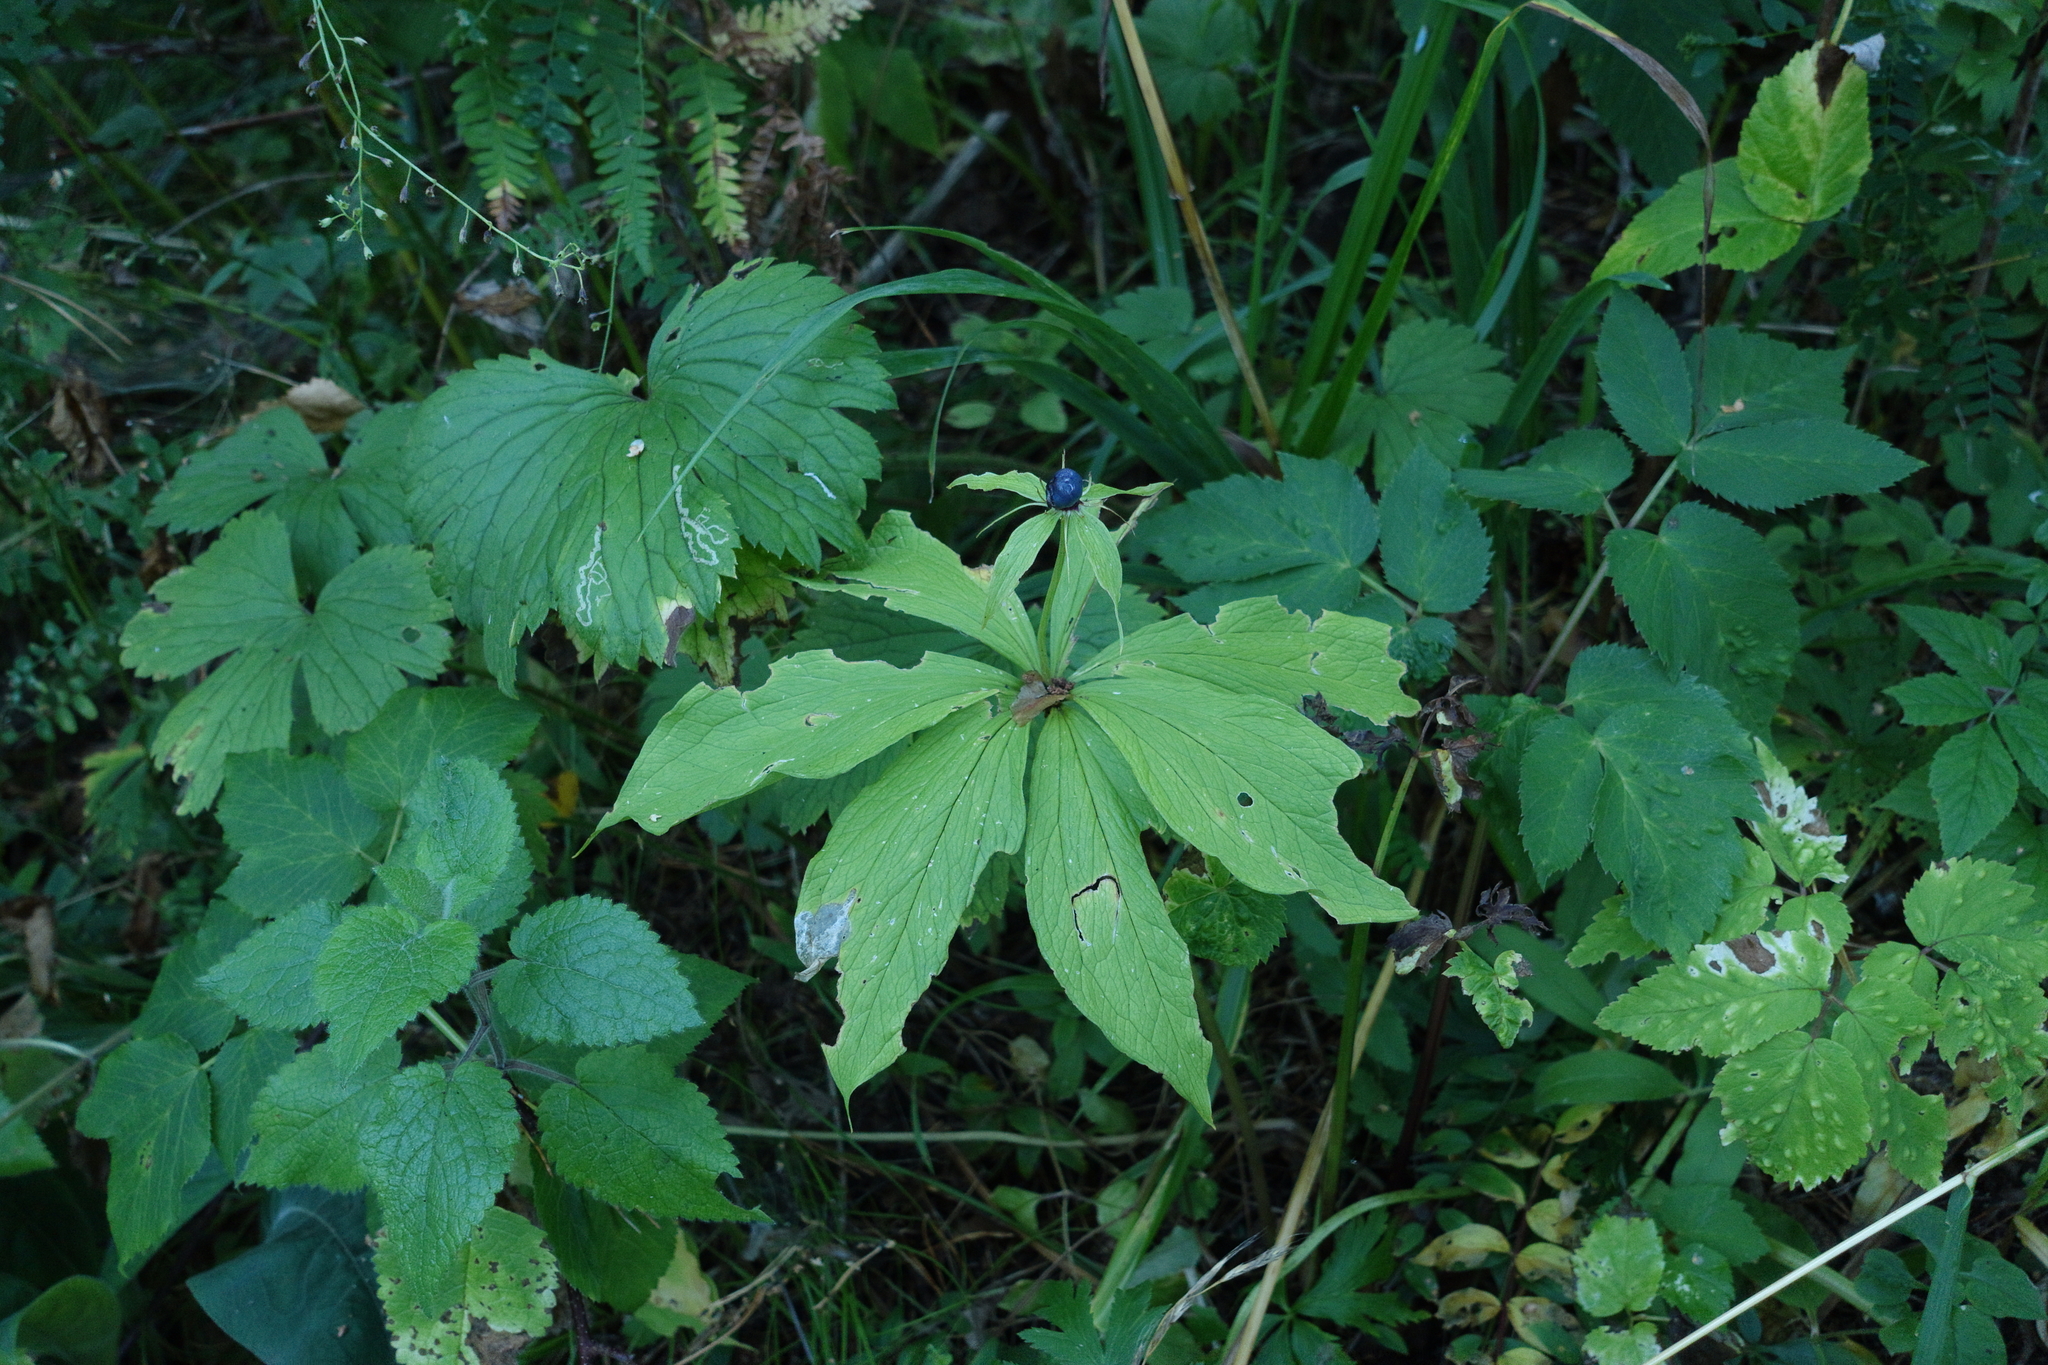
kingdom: Plantae
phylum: Tracheophyta
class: Liliopsida
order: Liliales
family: Melanthiaceae
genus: Paris
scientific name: Paris verticillata
